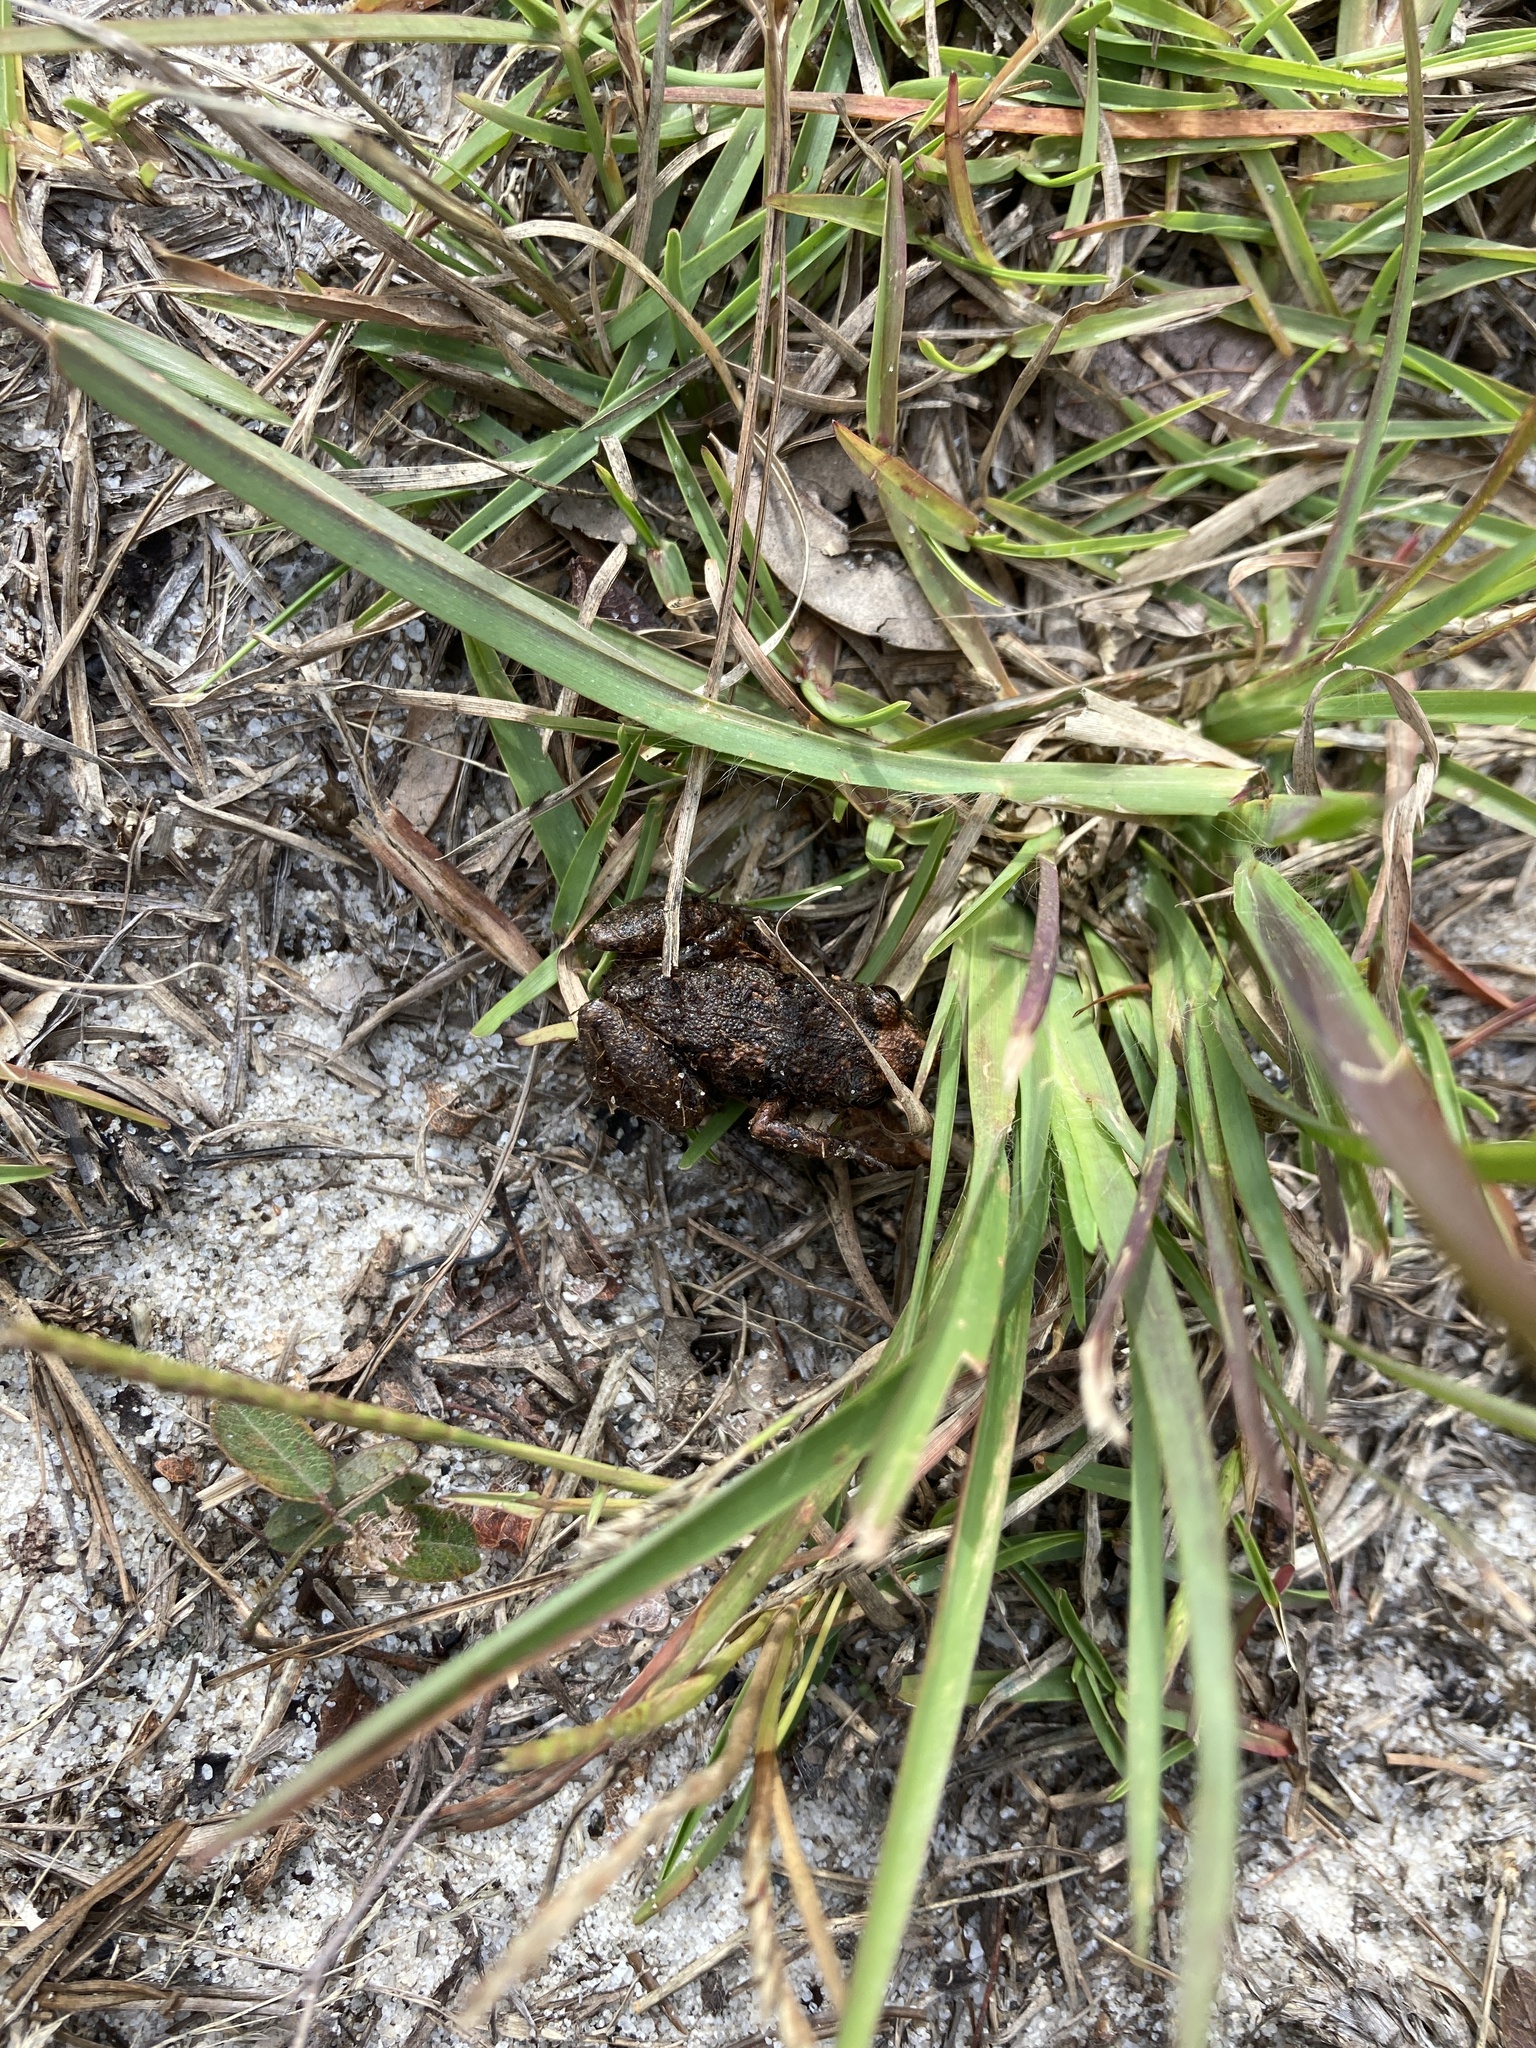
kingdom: Animalia
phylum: Chordata
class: Amphibia
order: Anura
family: Eleutherodactylidae
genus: Eleutherodactylus
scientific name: Eleutherodactylus planirostris
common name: Greenhouse frog
